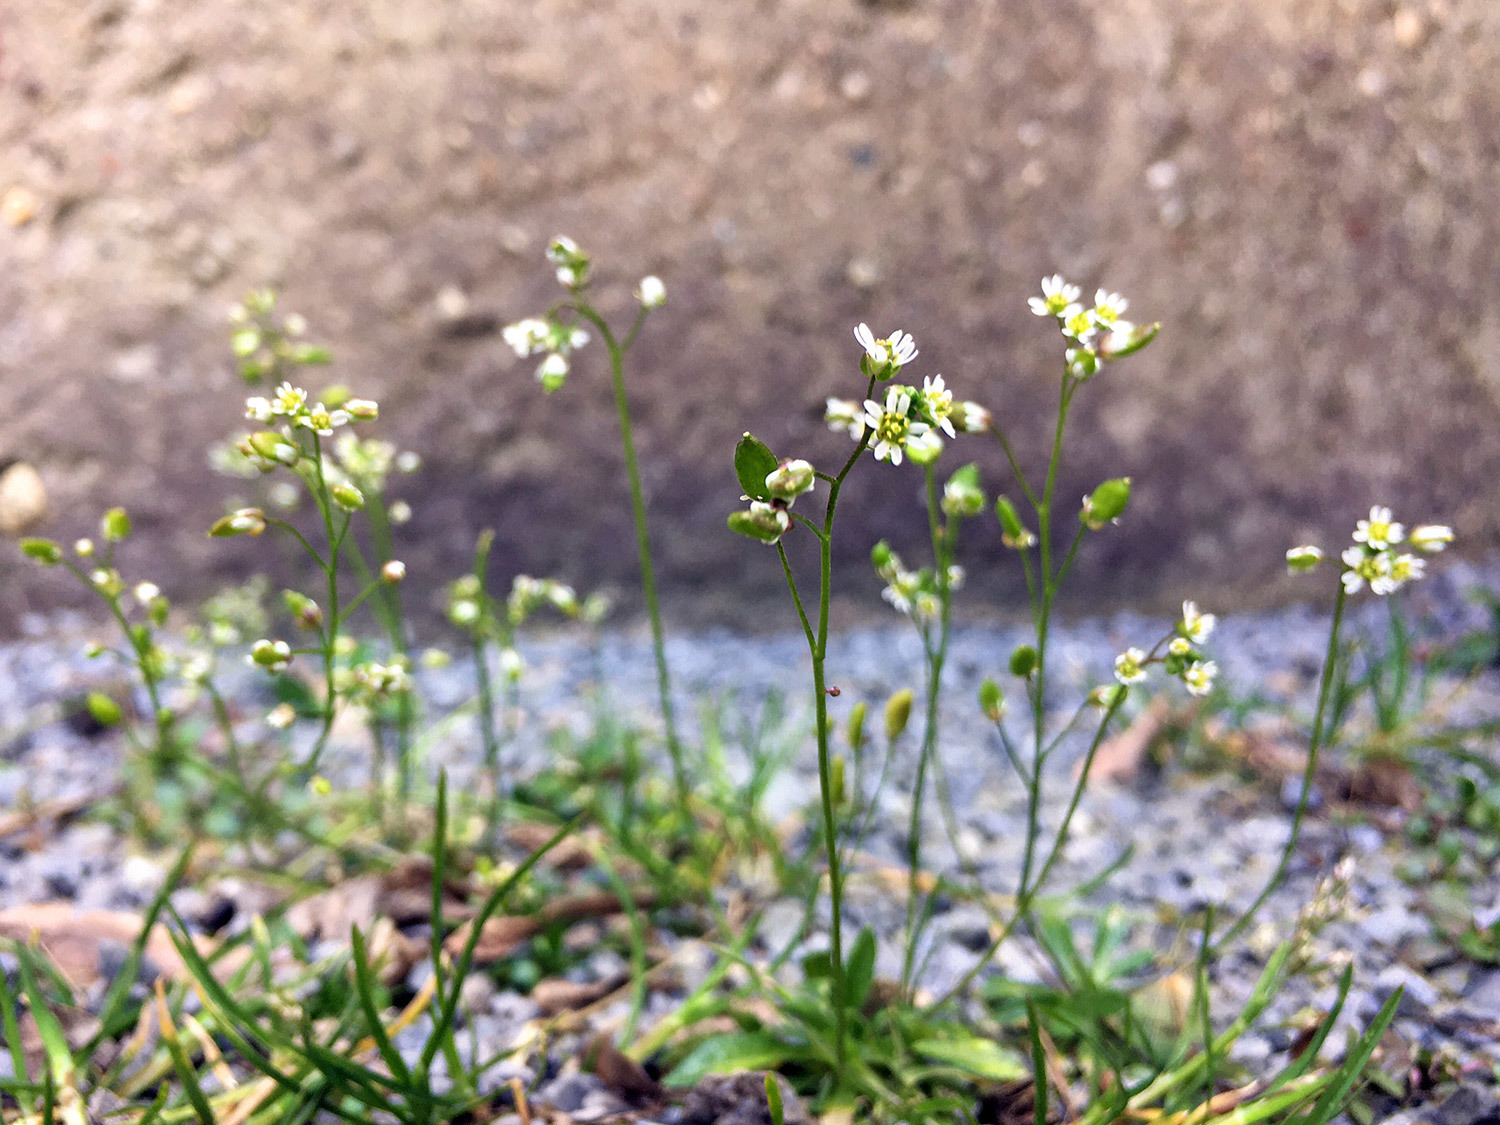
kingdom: Plantae
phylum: Tracheophyta
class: Magnoliopsida
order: Brassicales
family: Brassicaceae
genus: Draba
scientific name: Draba verna
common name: Spring draba
